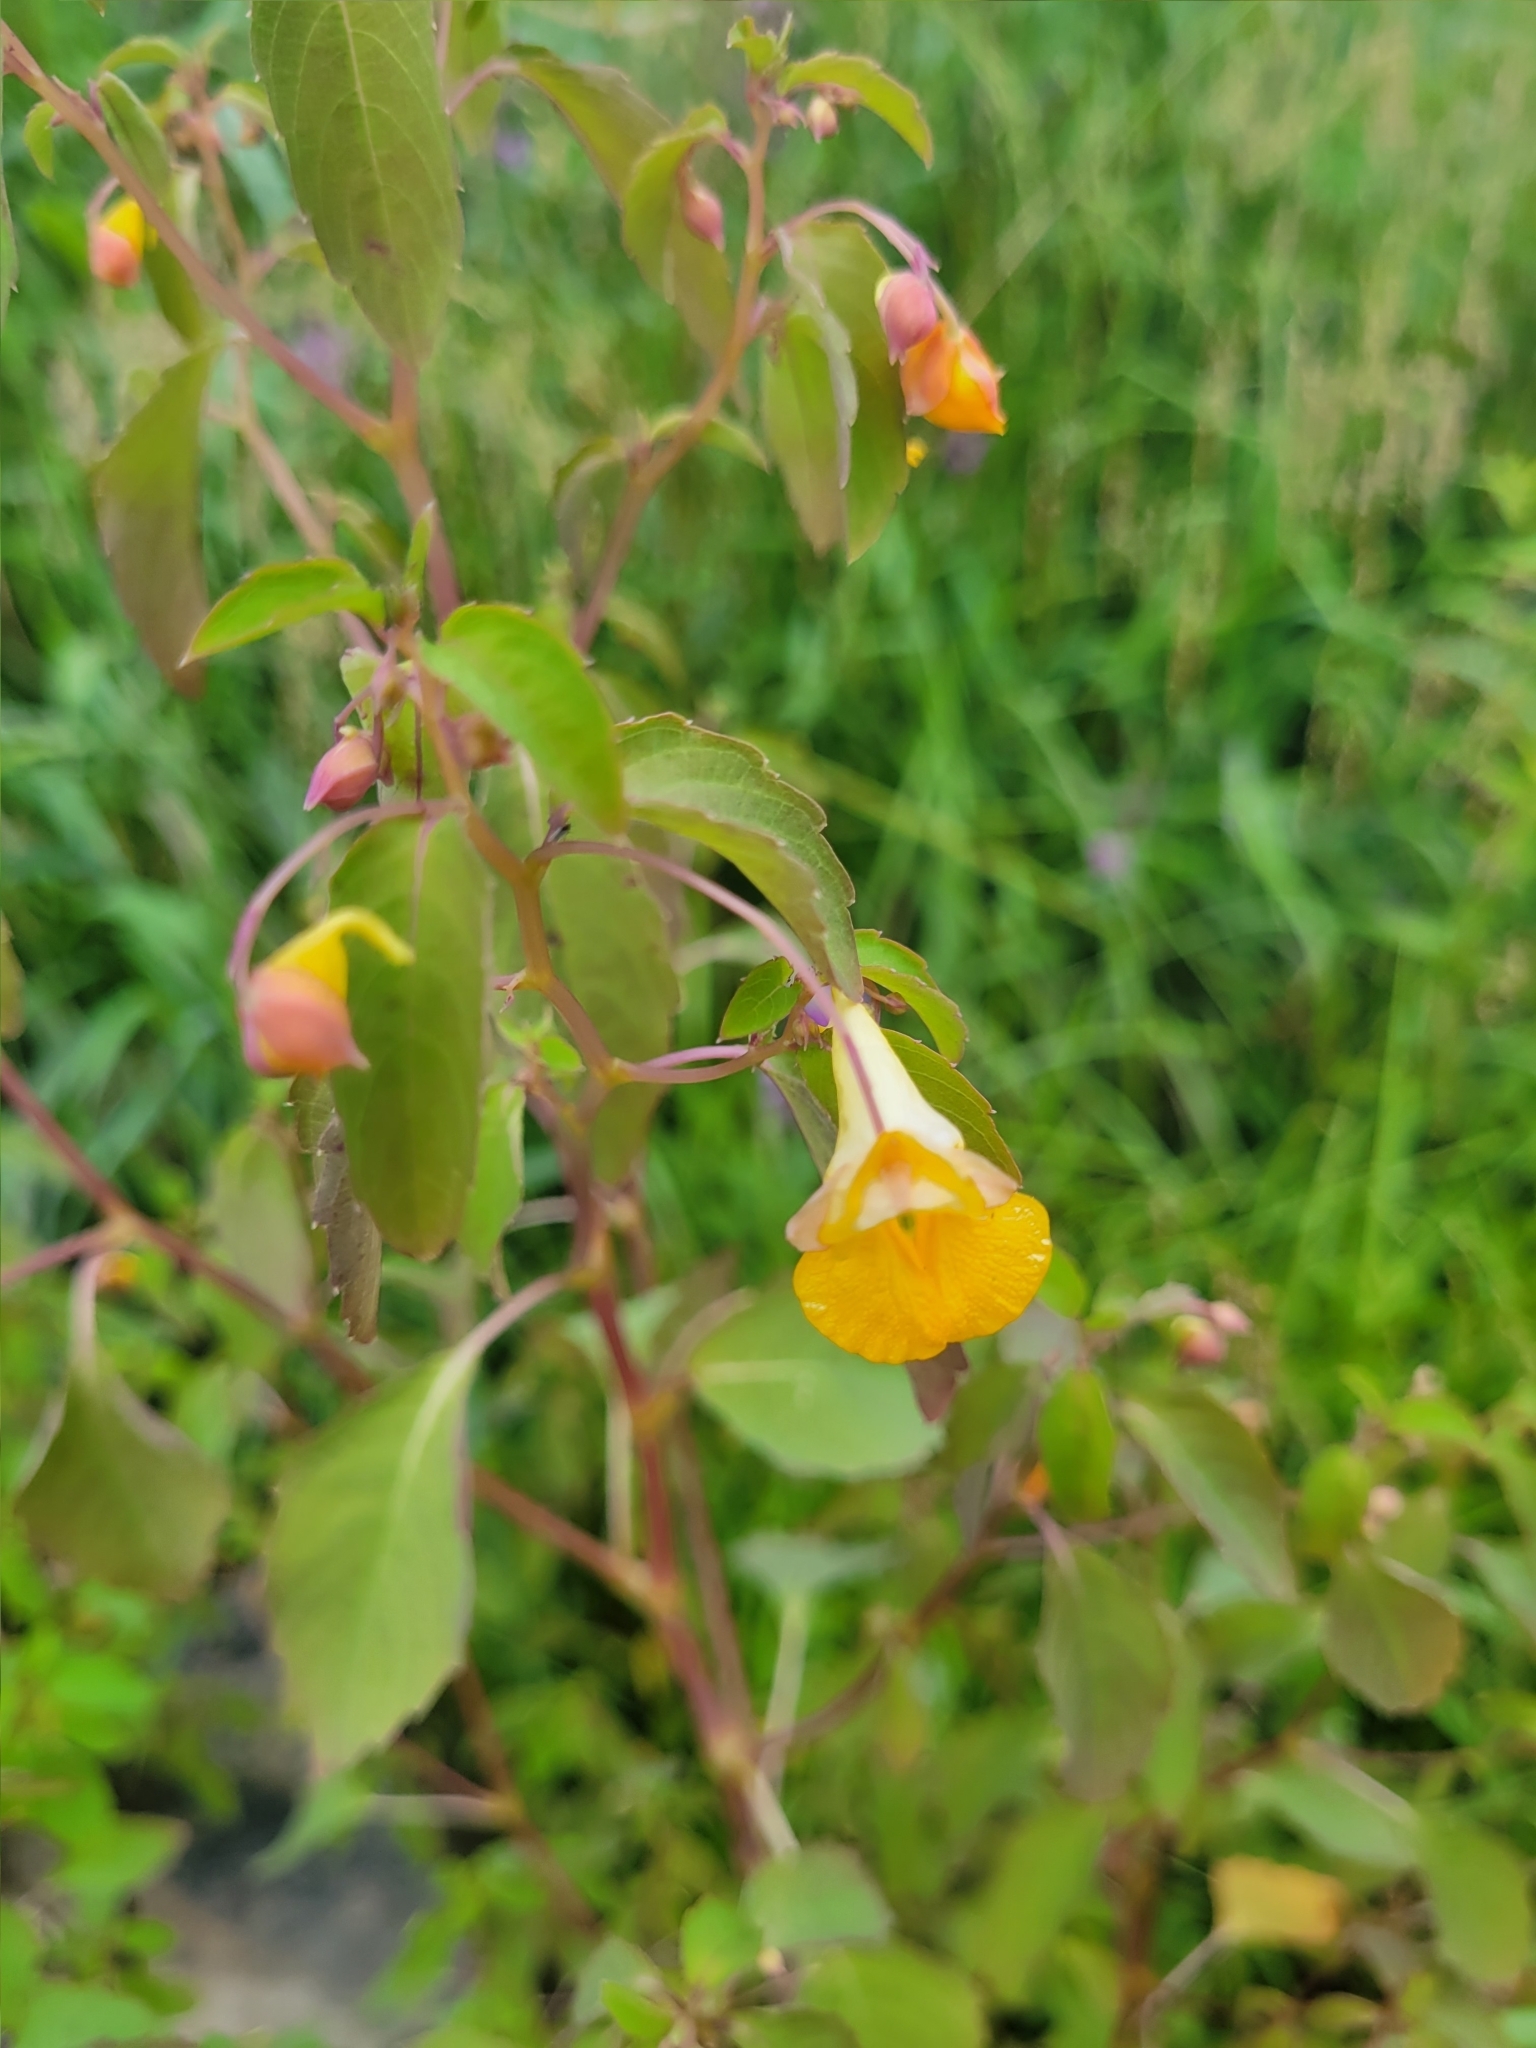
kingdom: Plantae
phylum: Tracheophyta
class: Magnoliopsida
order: Ericales
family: Balsaminaceae
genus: Impatiens
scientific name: Impatiens capensis
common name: Orange balsam
